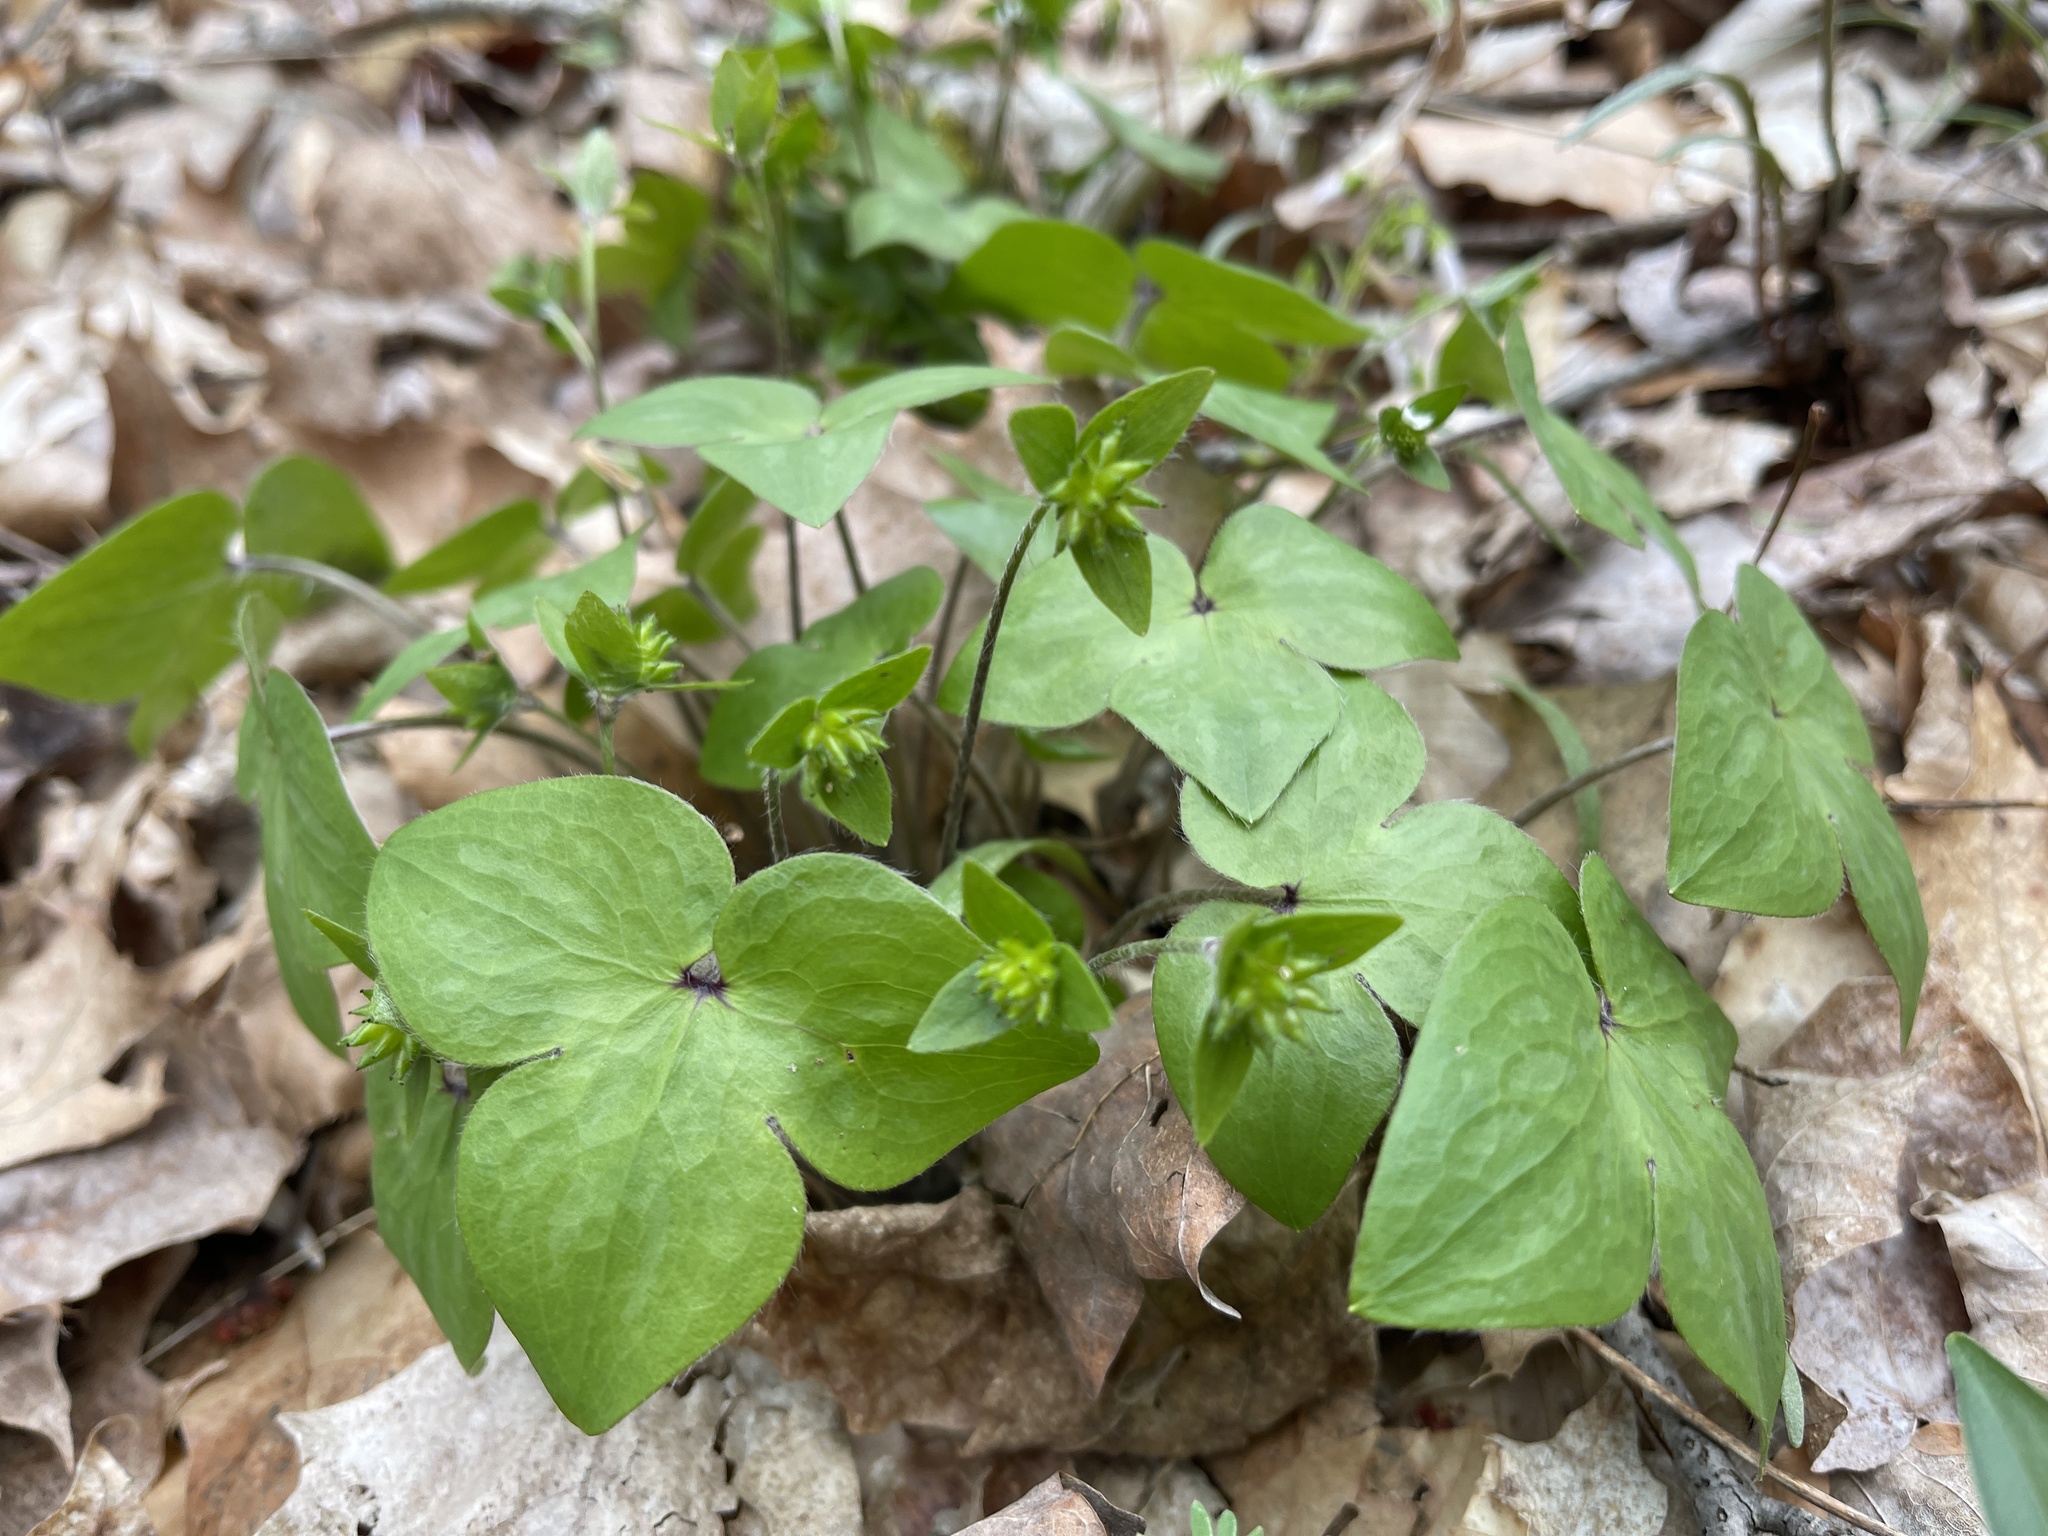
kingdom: Plantae
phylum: Tracheophyta
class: Magnoliopsida
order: Ranunculales
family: Ranunculaceae
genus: Hepatica
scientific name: Hepatica acutiloba
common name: Sharp-lobed hepatica
